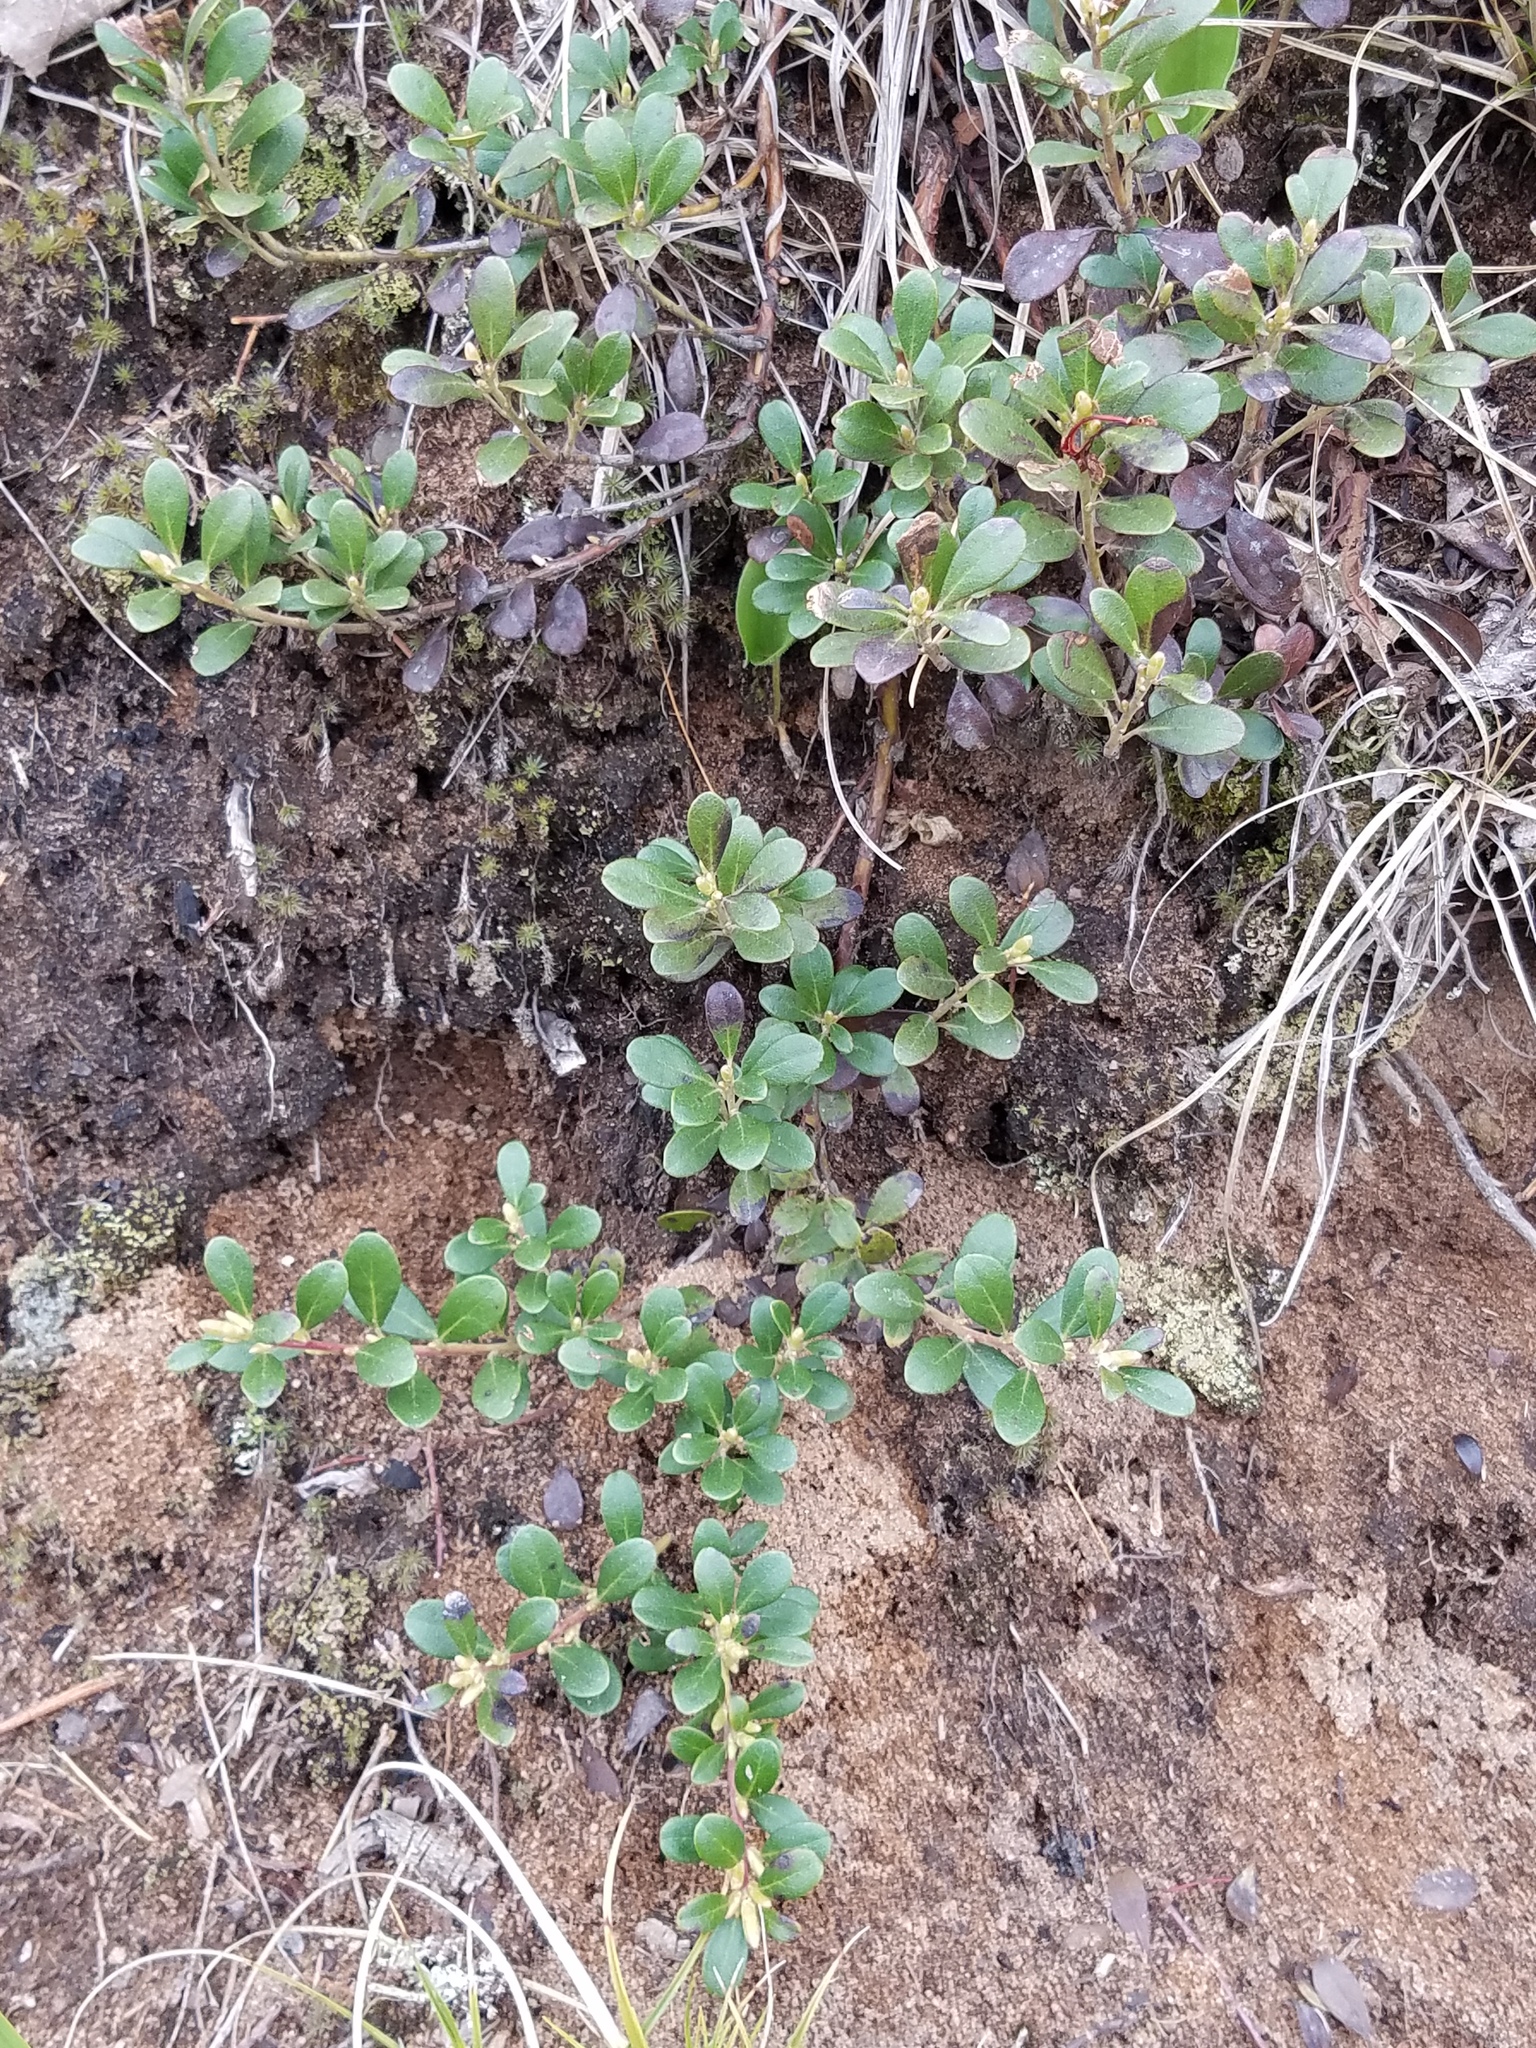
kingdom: Plantae
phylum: Tracheophyta
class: Magnoliopsida
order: Ericales
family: Ericaceae
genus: Arctostaphylos
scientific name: Arctostaphylos uva-ursi
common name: Bearberry
